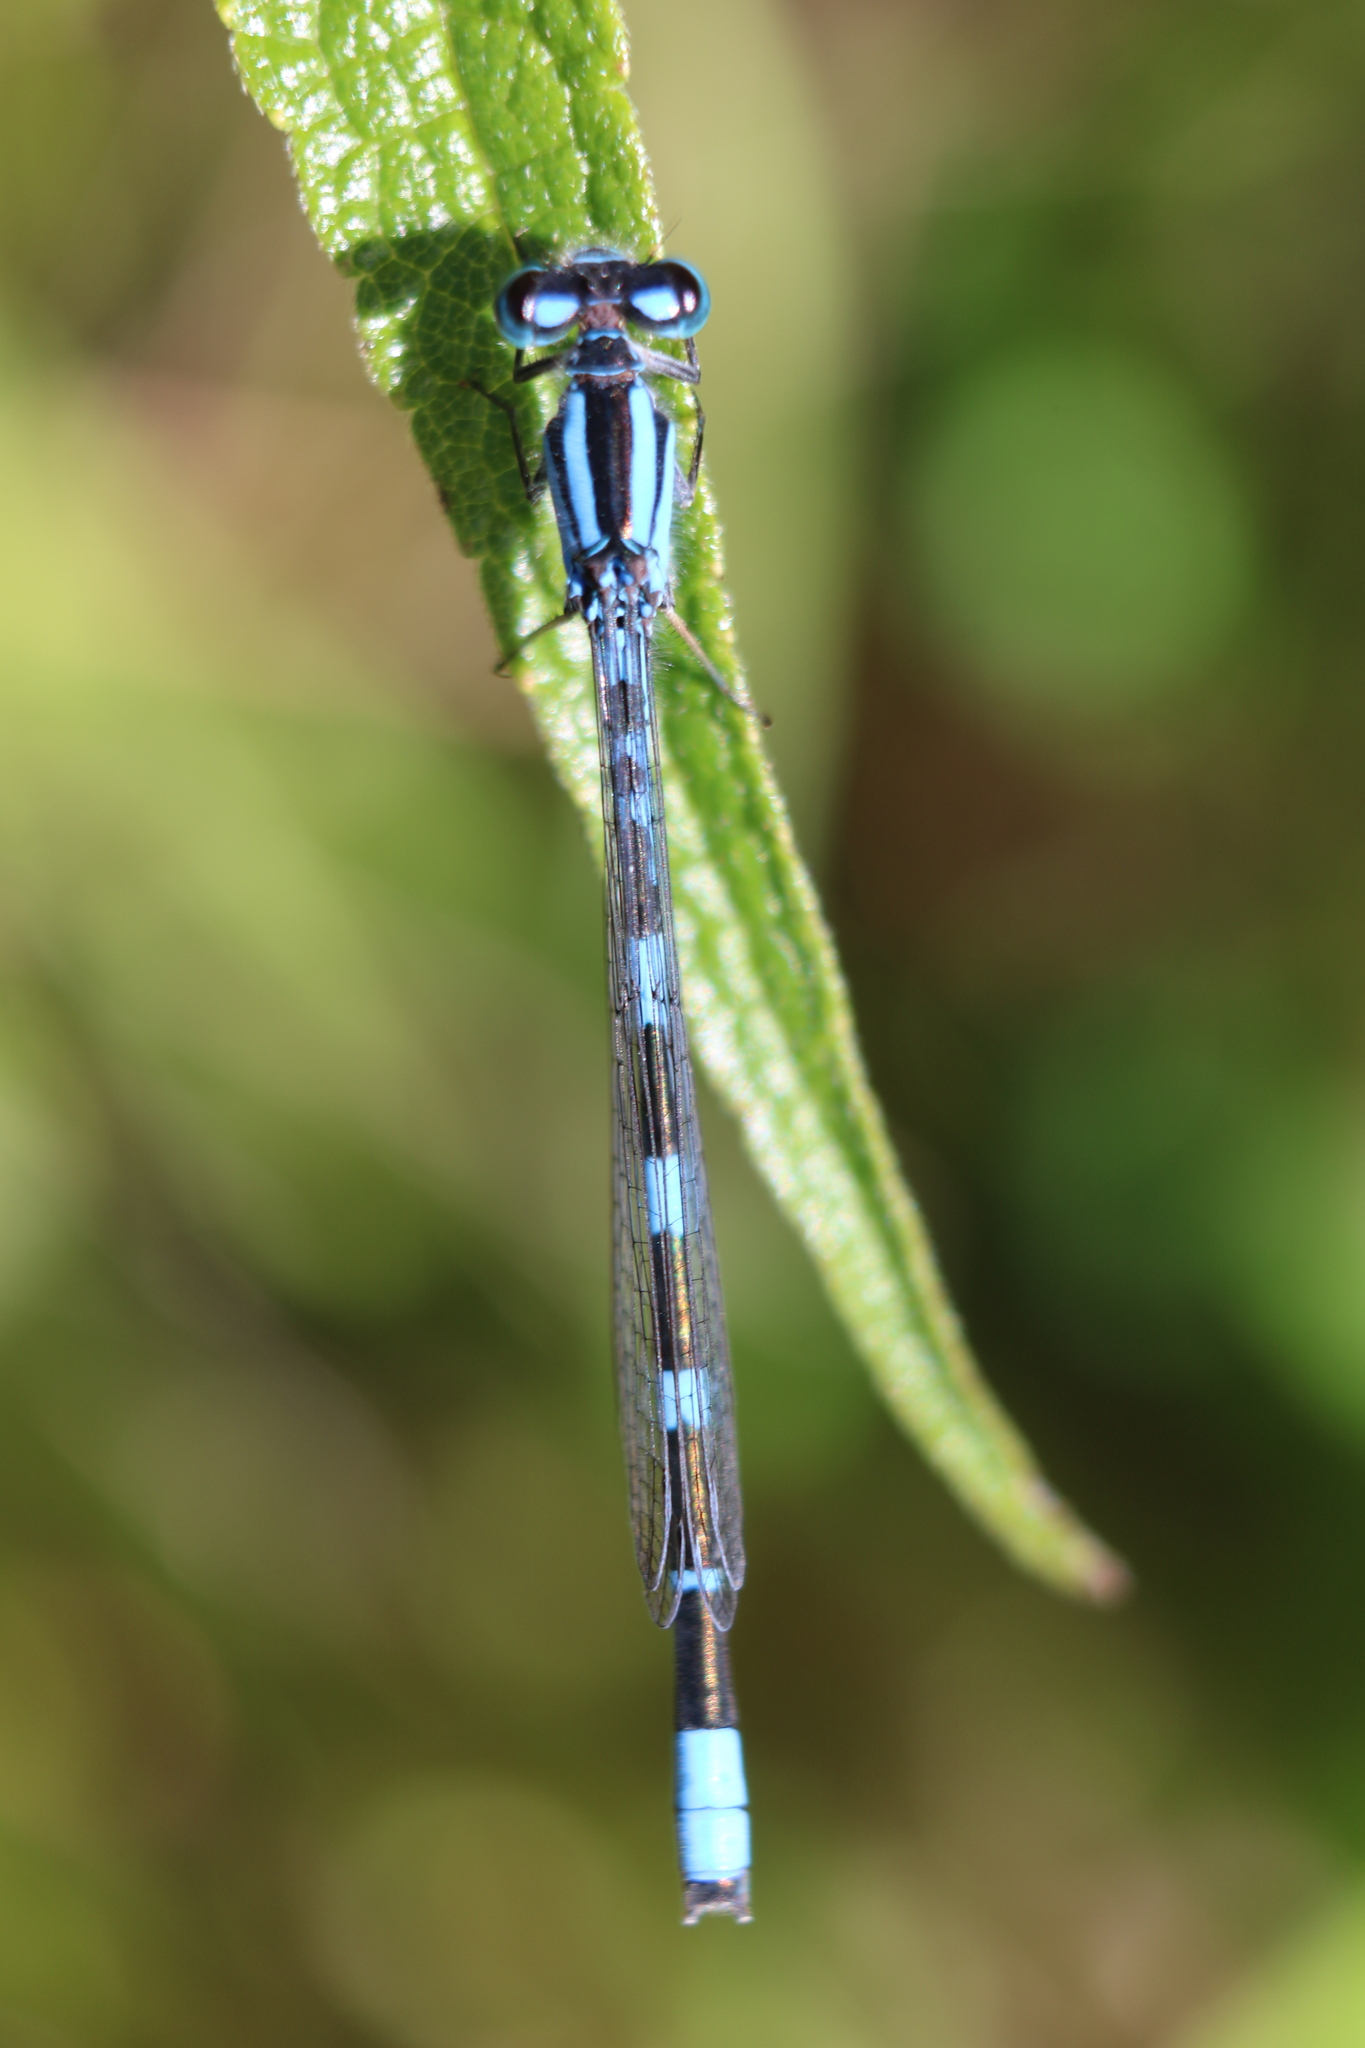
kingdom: Animalia
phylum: Arthropoda
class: Insecta
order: Odonata
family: Coenagrionidae
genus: Enallagma
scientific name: Enallagma carunculatum
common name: Tule bluet
